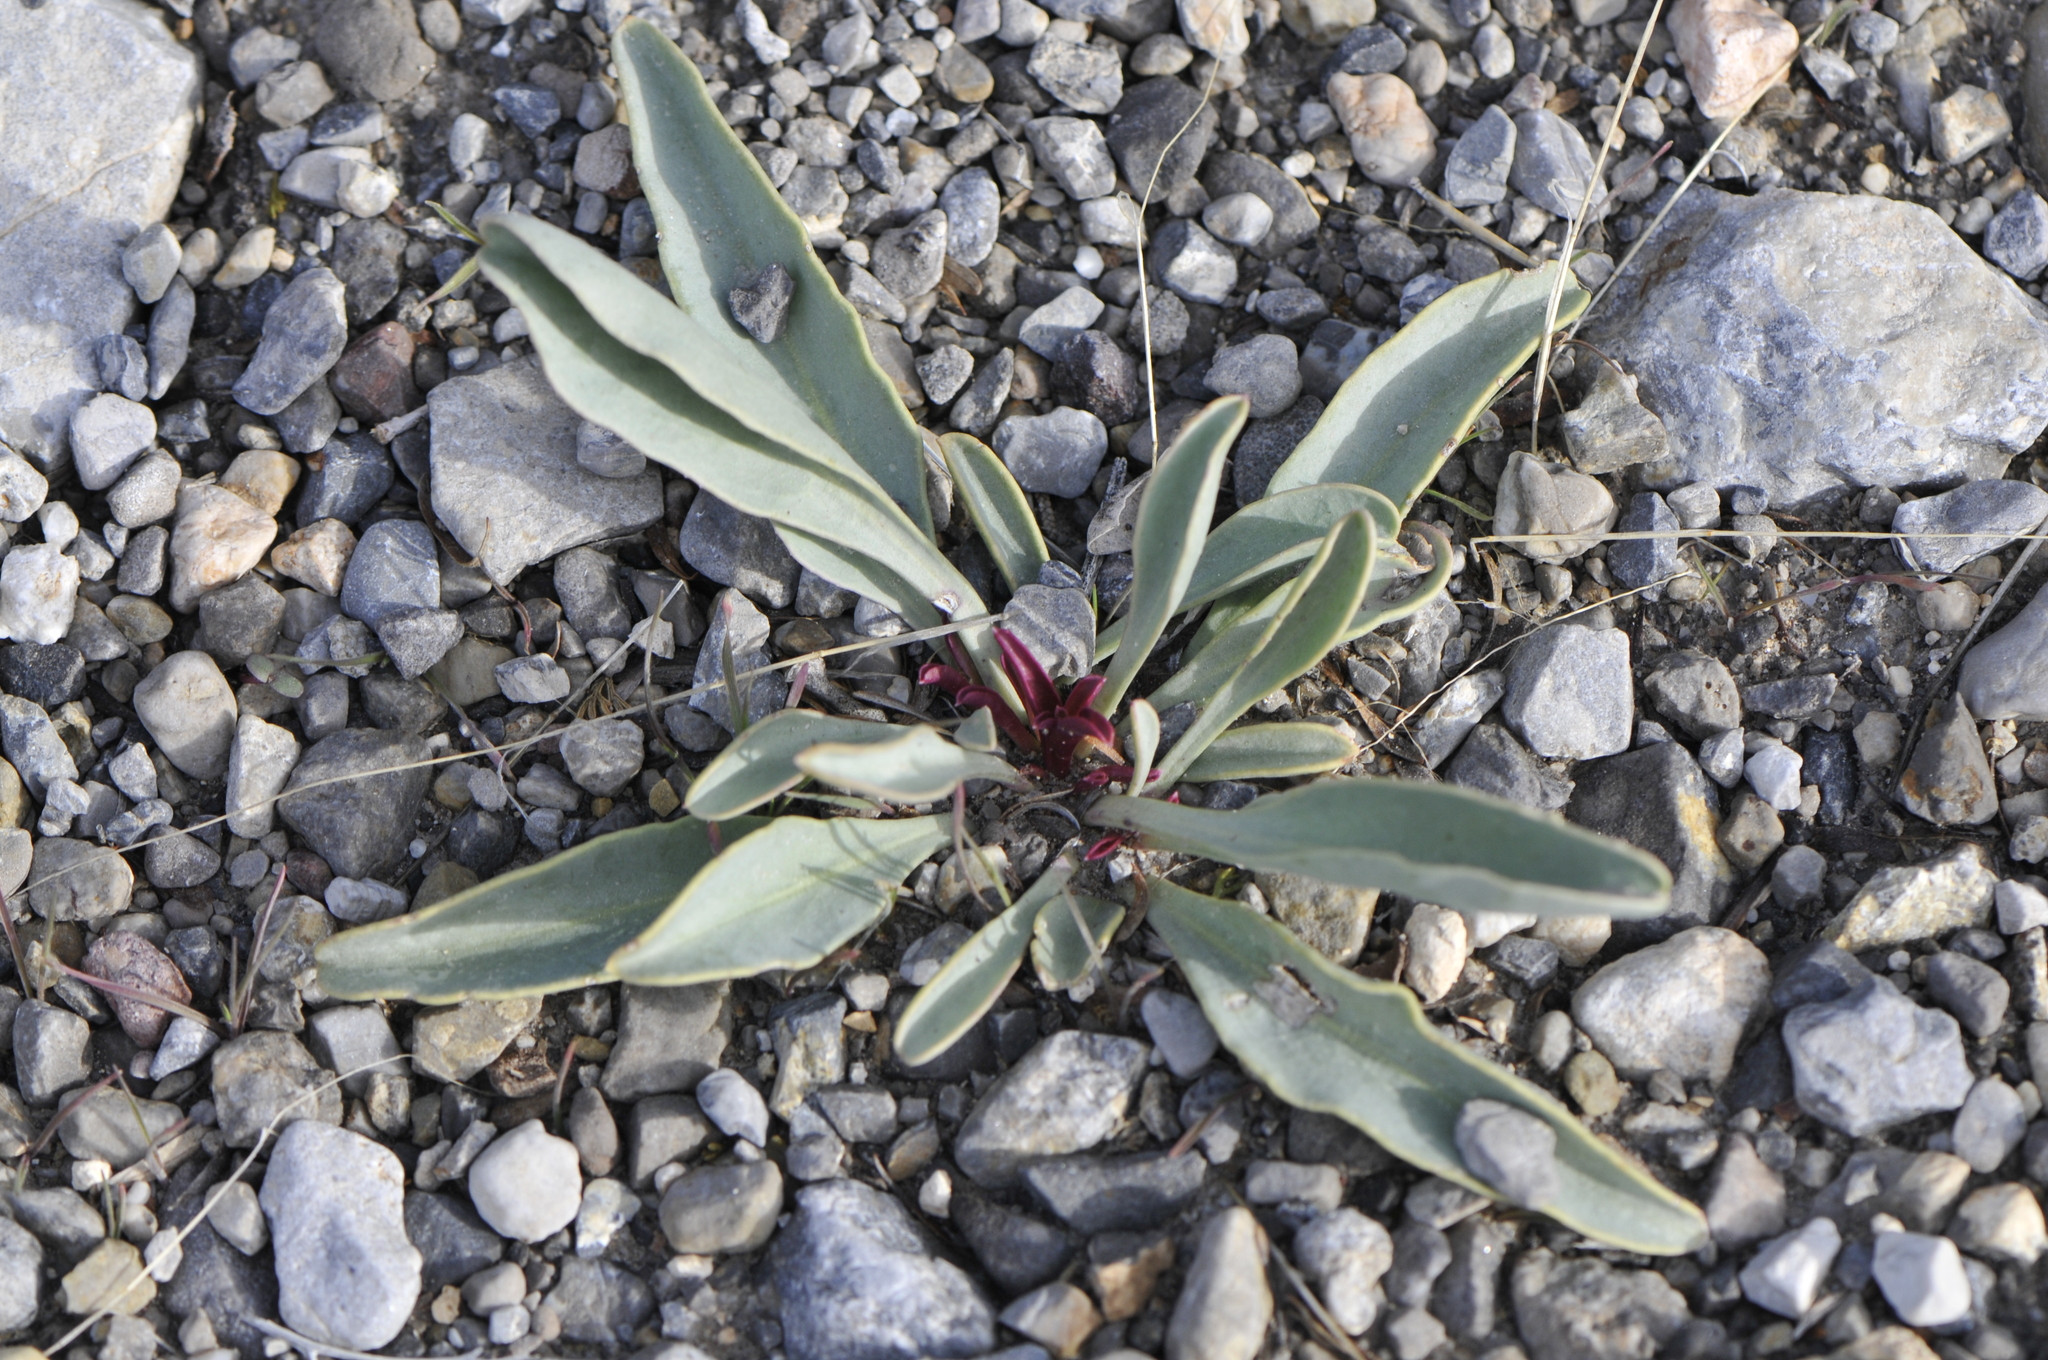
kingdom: Plantae
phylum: Tracheophyta
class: Magnoliopsida
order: Lamiales
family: Plantaginaceae
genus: Penstemon
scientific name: Penstemon utahensis
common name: Utah penstemon
